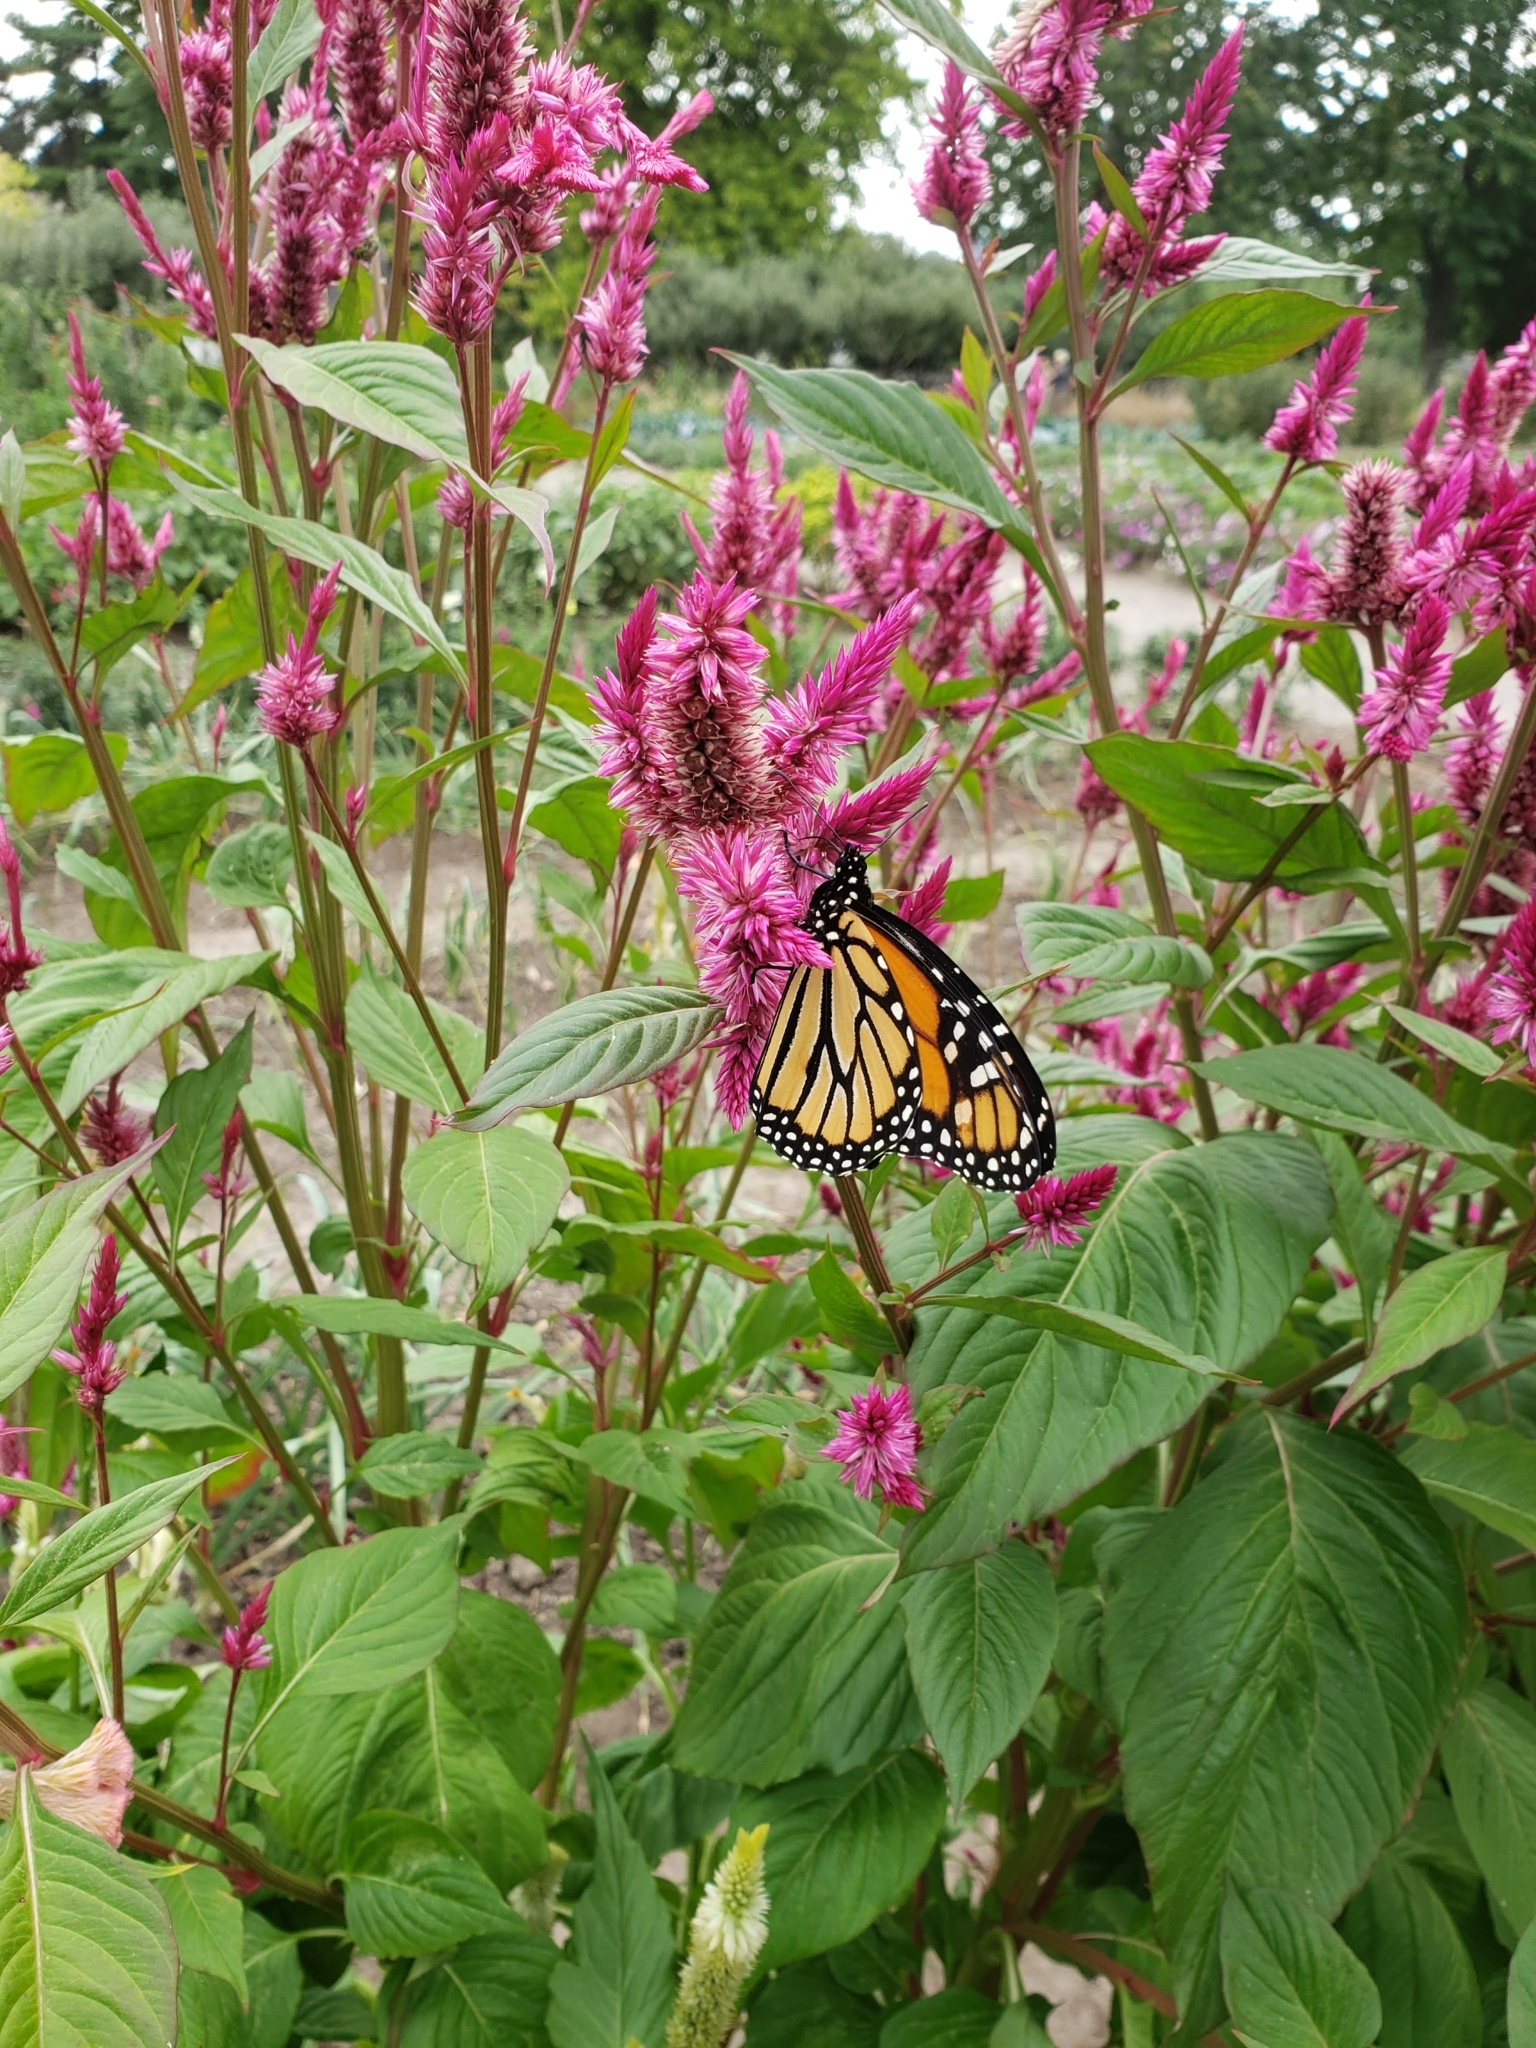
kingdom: Animalia
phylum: Arthropoda
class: Insecta
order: Lepidoptera
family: Nymphalidae
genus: Danaus
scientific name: Danaus plexippus
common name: Monarch
